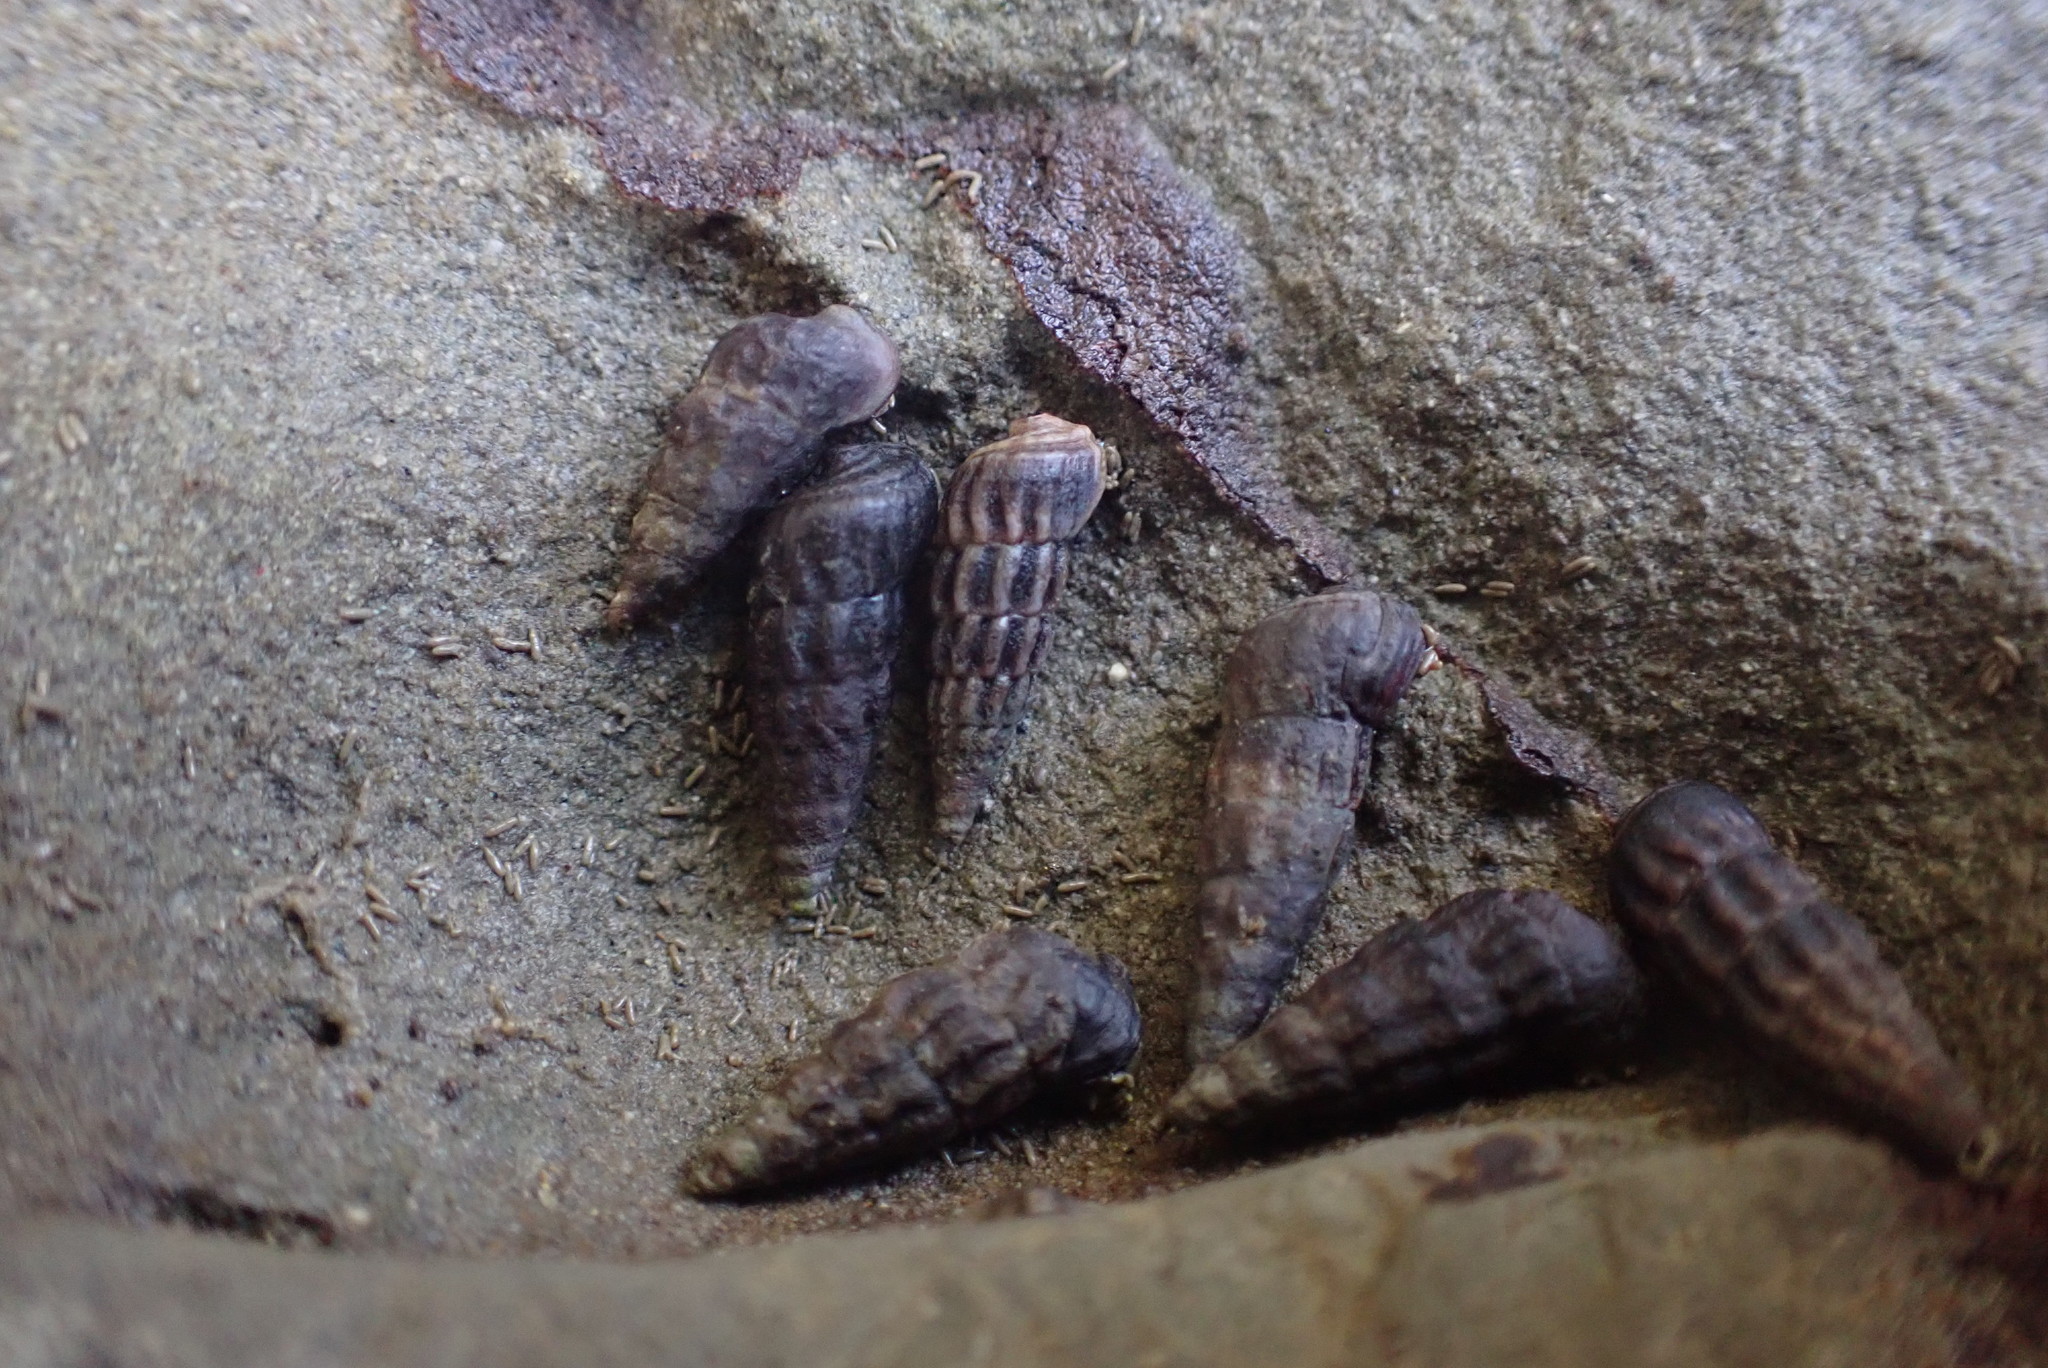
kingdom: Animalia
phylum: Mollusca
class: Gastropoda
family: Batillariidae
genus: Zeacumantus
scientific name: Zeacumantus subcarinatus
